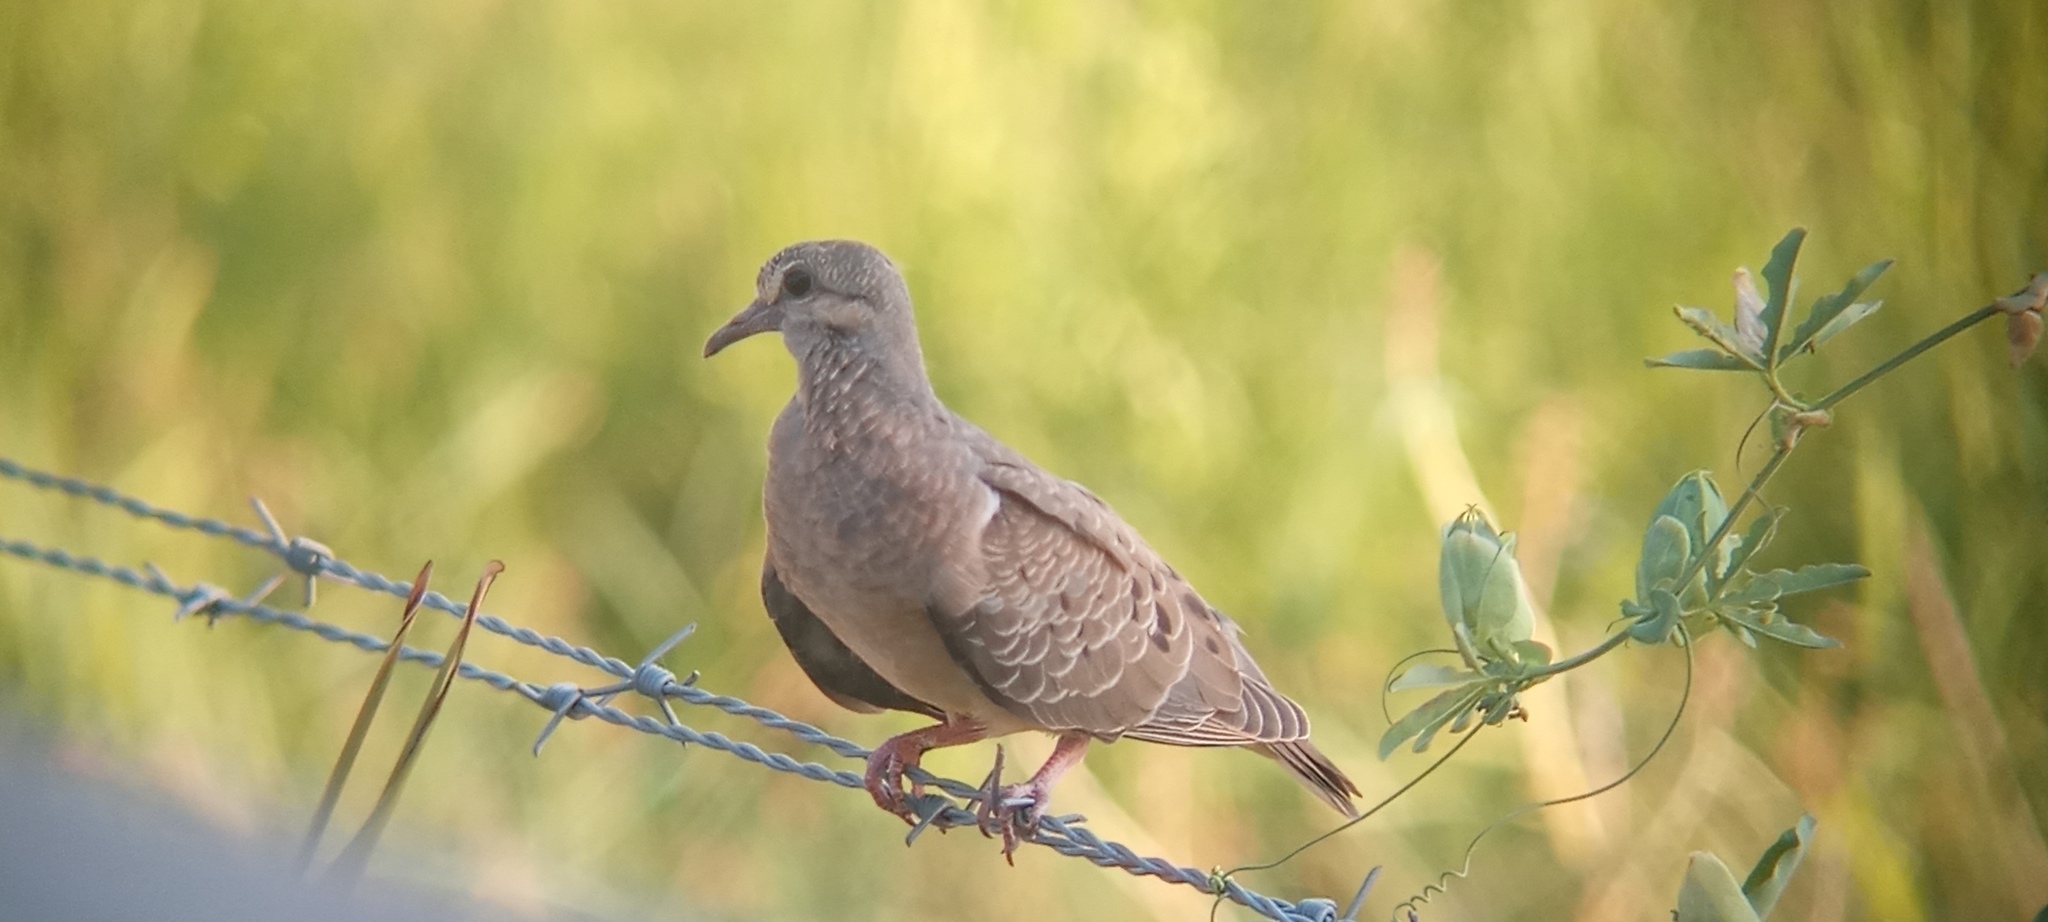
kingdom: Animalia
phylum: Chordata
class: Aves
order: Columbiformes
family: Columbidae
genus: Zenaida
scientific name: Zenaida auriculata
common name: Eared dove
